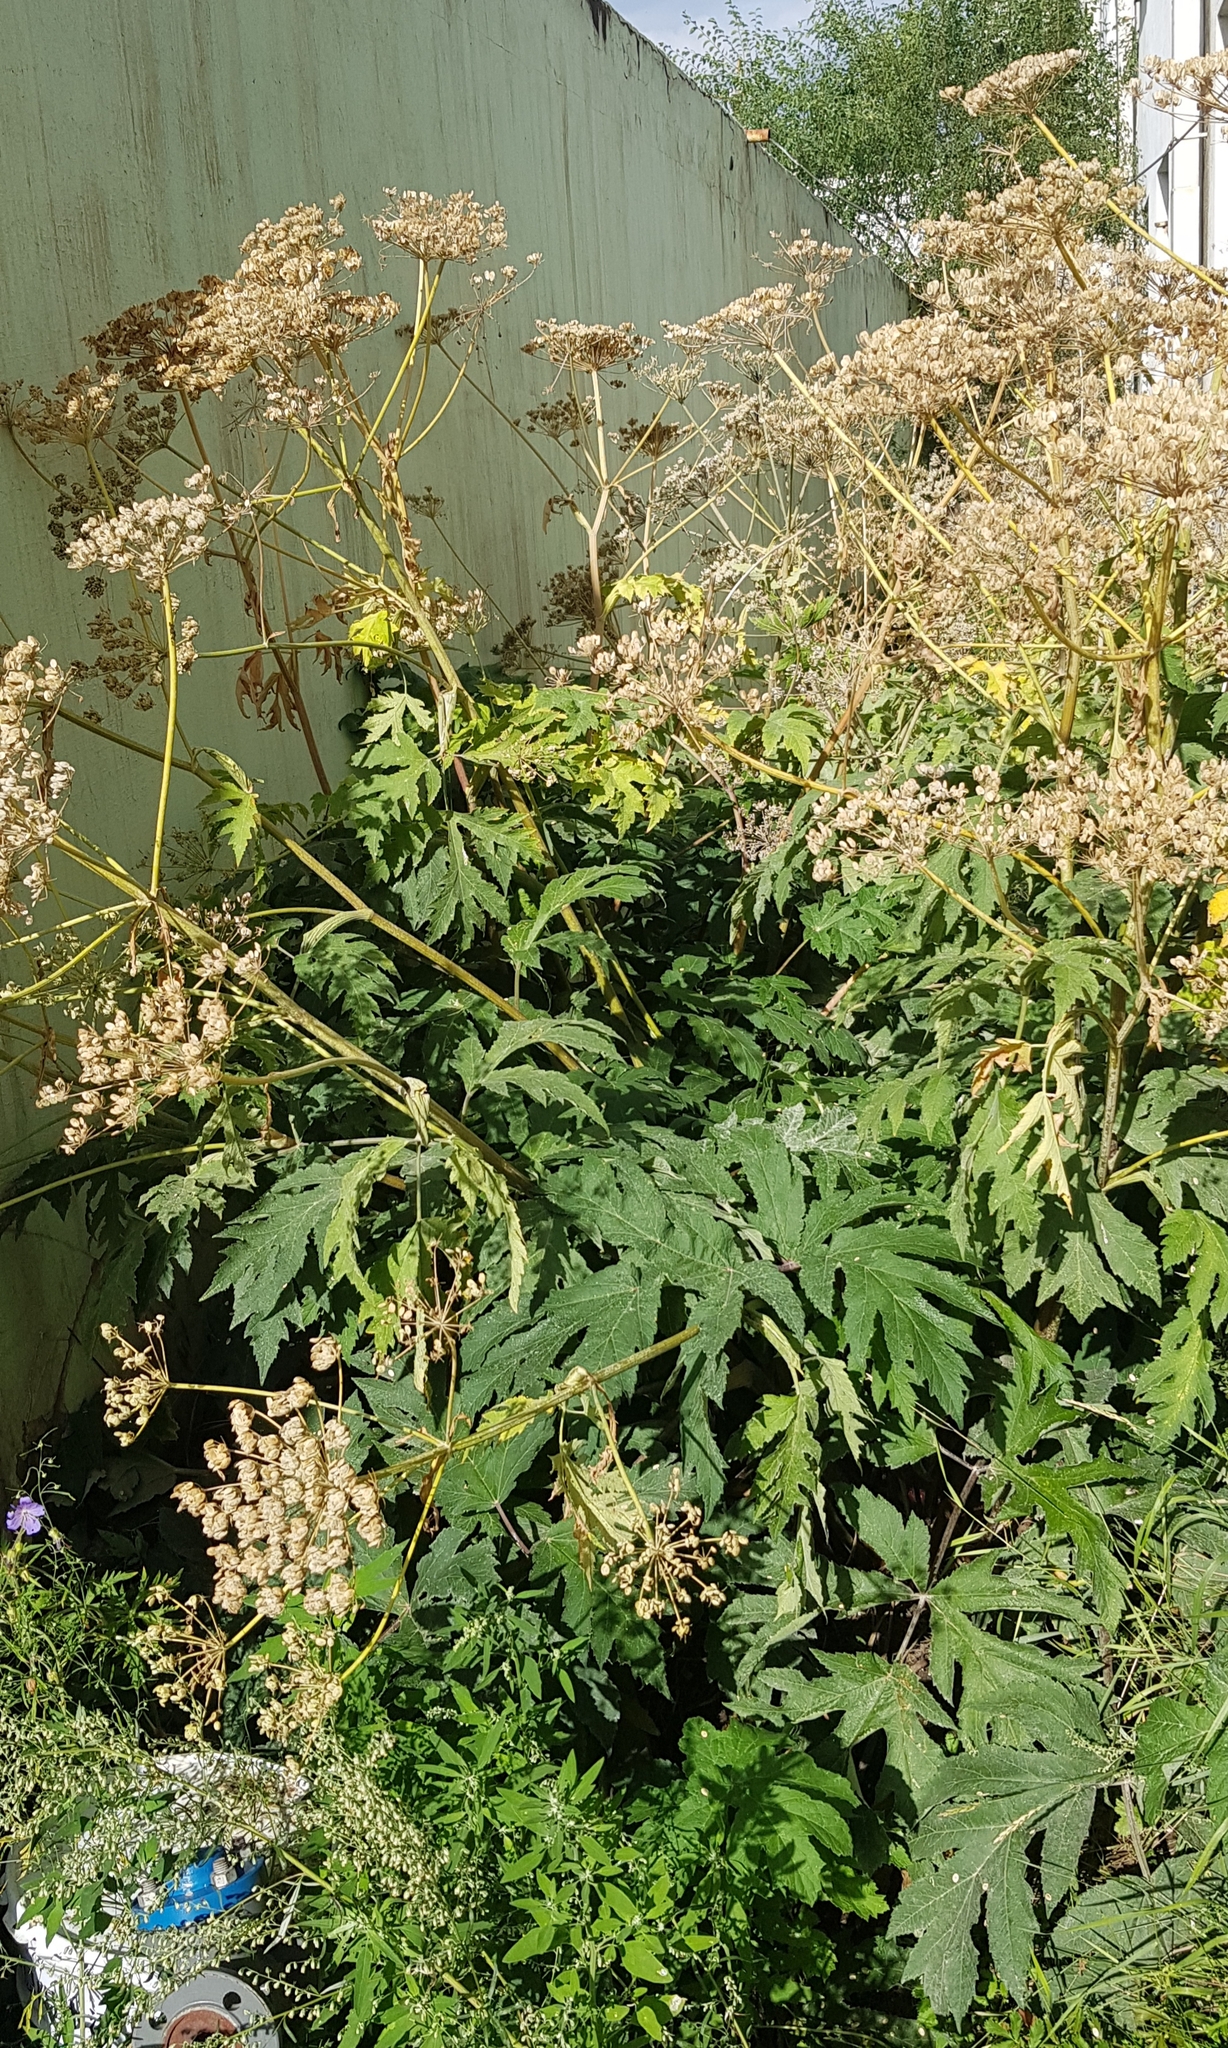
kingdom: Plantae
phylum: Tracheophyta
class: Magnoliopsida
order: Apiales
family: Apiaceae
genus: Heracleum
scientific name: Heracleum dissectum
